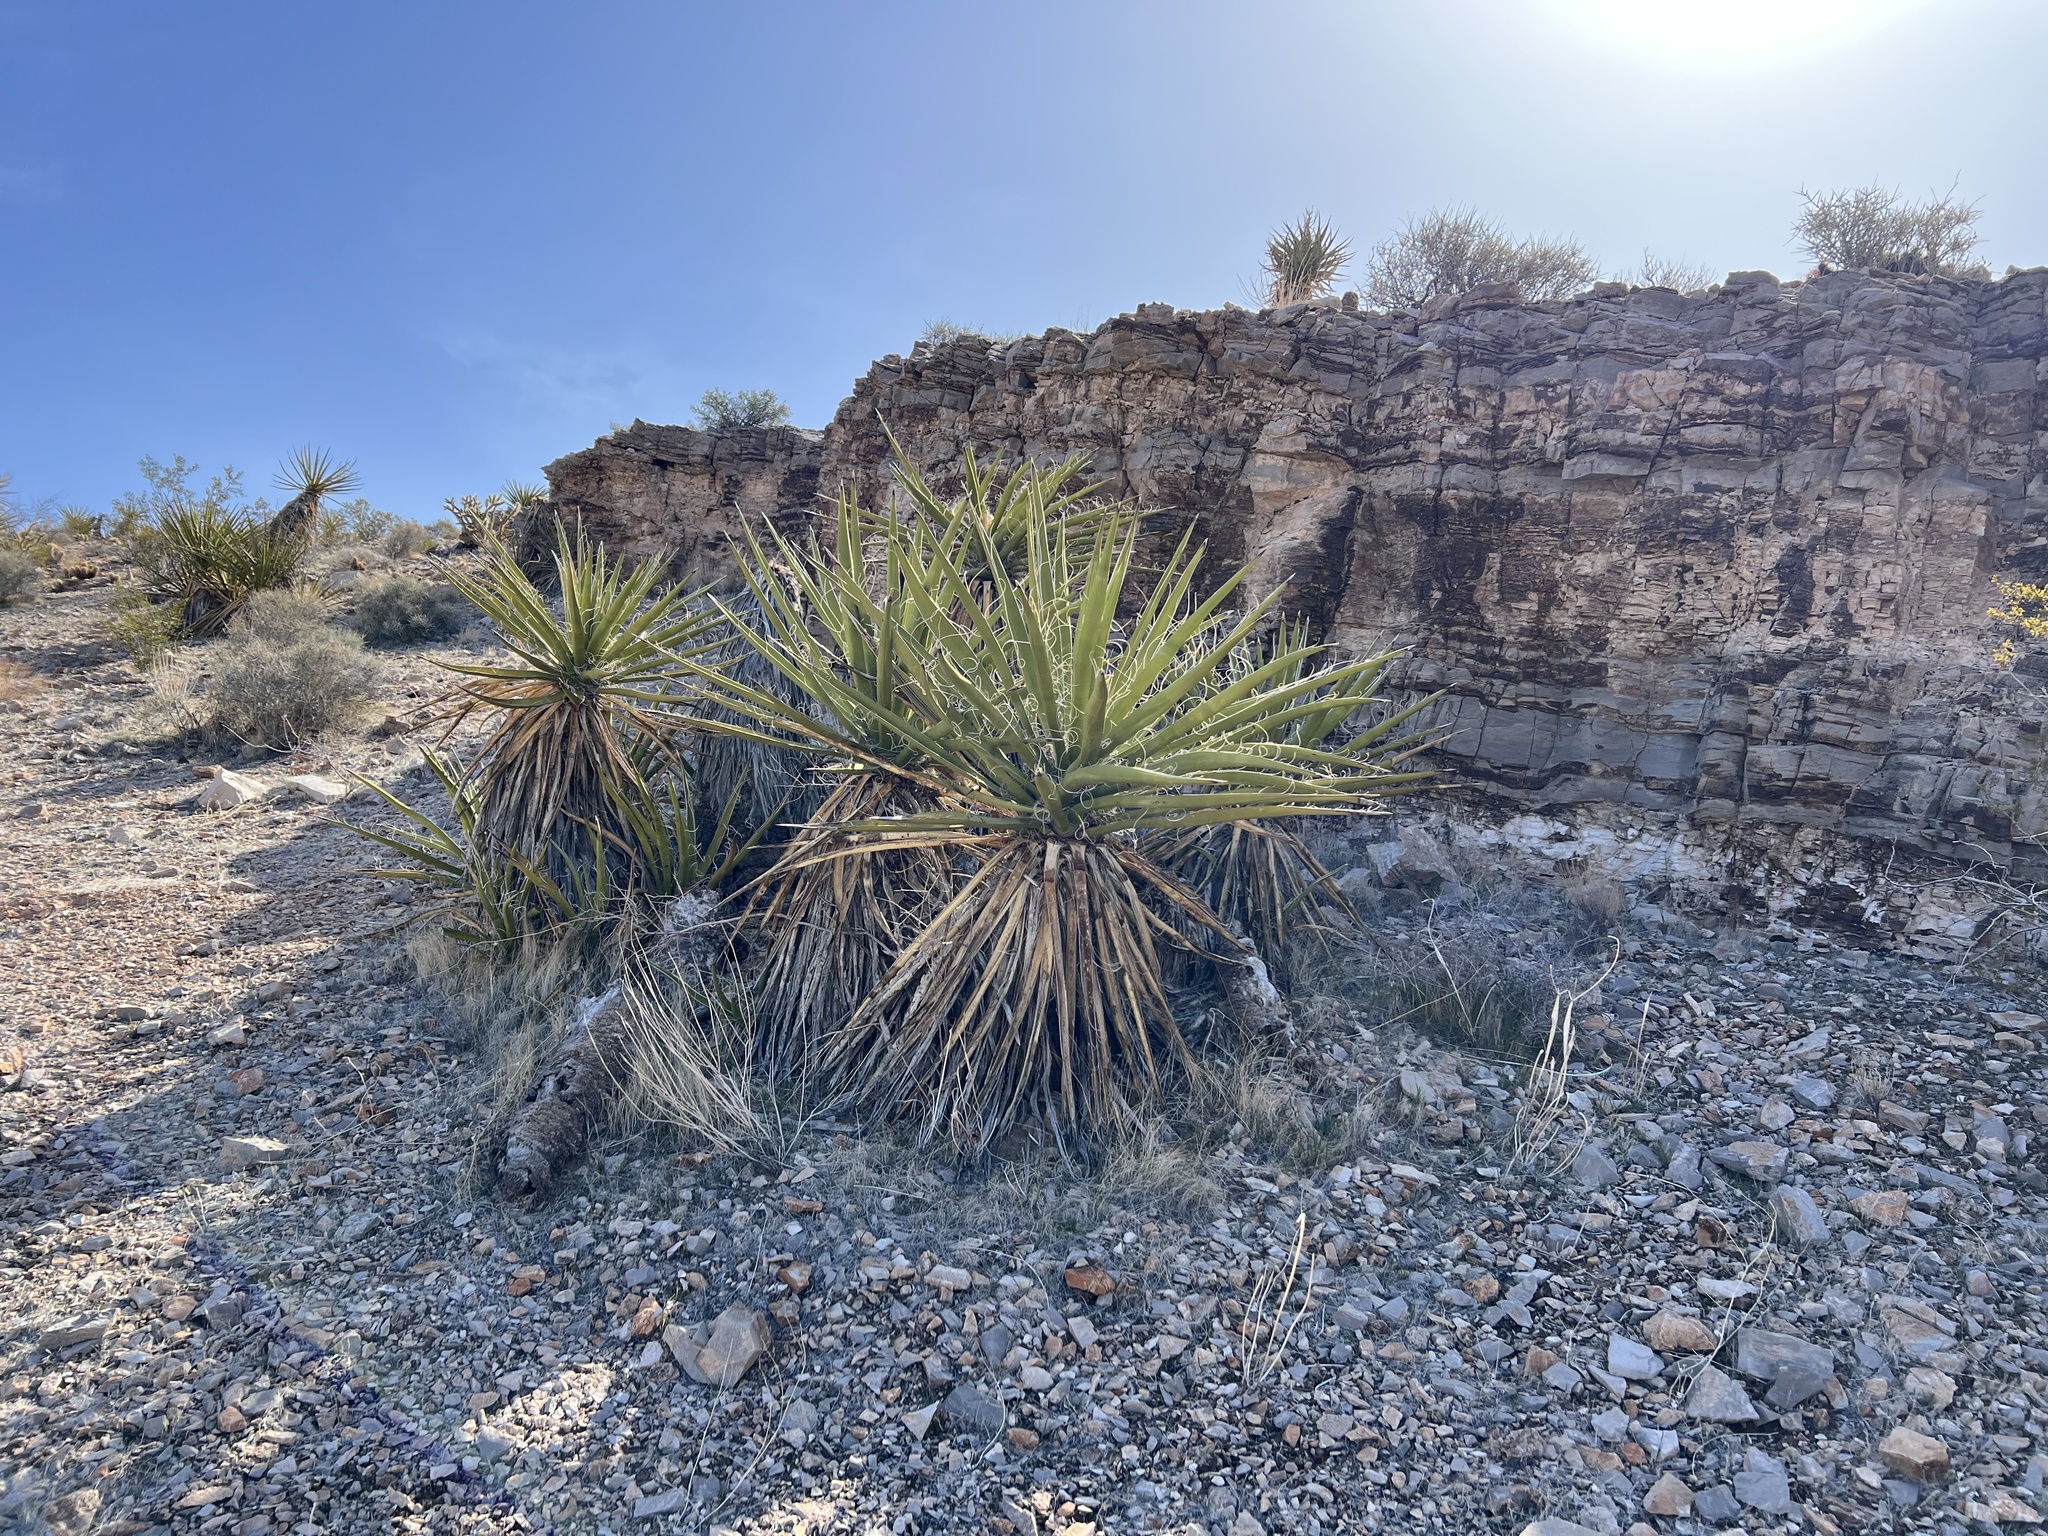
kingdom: Plantae
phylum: Tracheophyta
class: Liliopsida
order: Asparagales
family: Asparagaceae
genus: Yucca
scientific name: Yucca schidigera
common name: Mojave yucca
